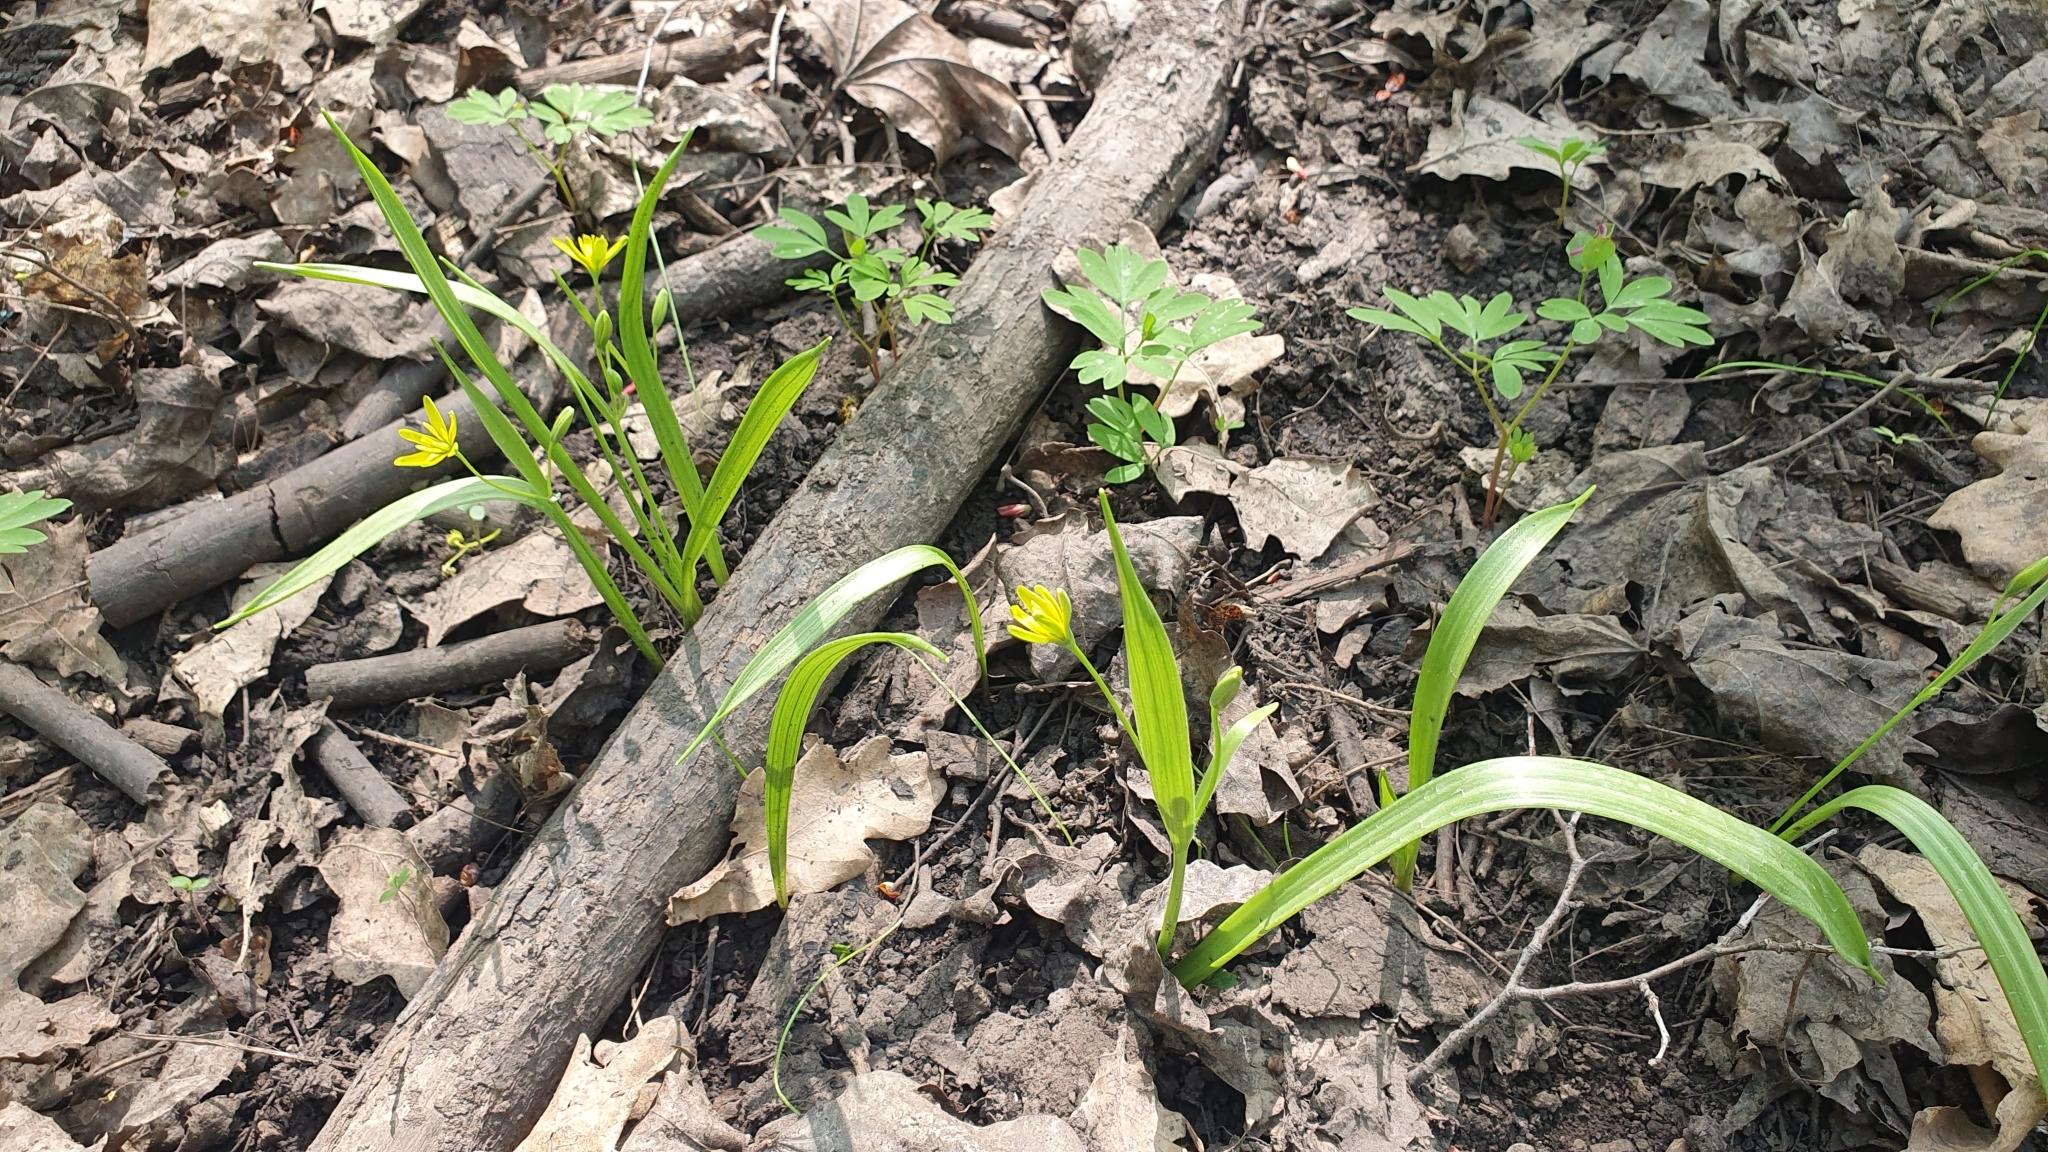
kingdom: Plantae
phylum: Tracheophyta
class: Liliopsida
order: Liliales
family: Liliaceae
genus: Gagea
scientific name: Gagea lutea
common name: Yellow star-of-bethlehem
